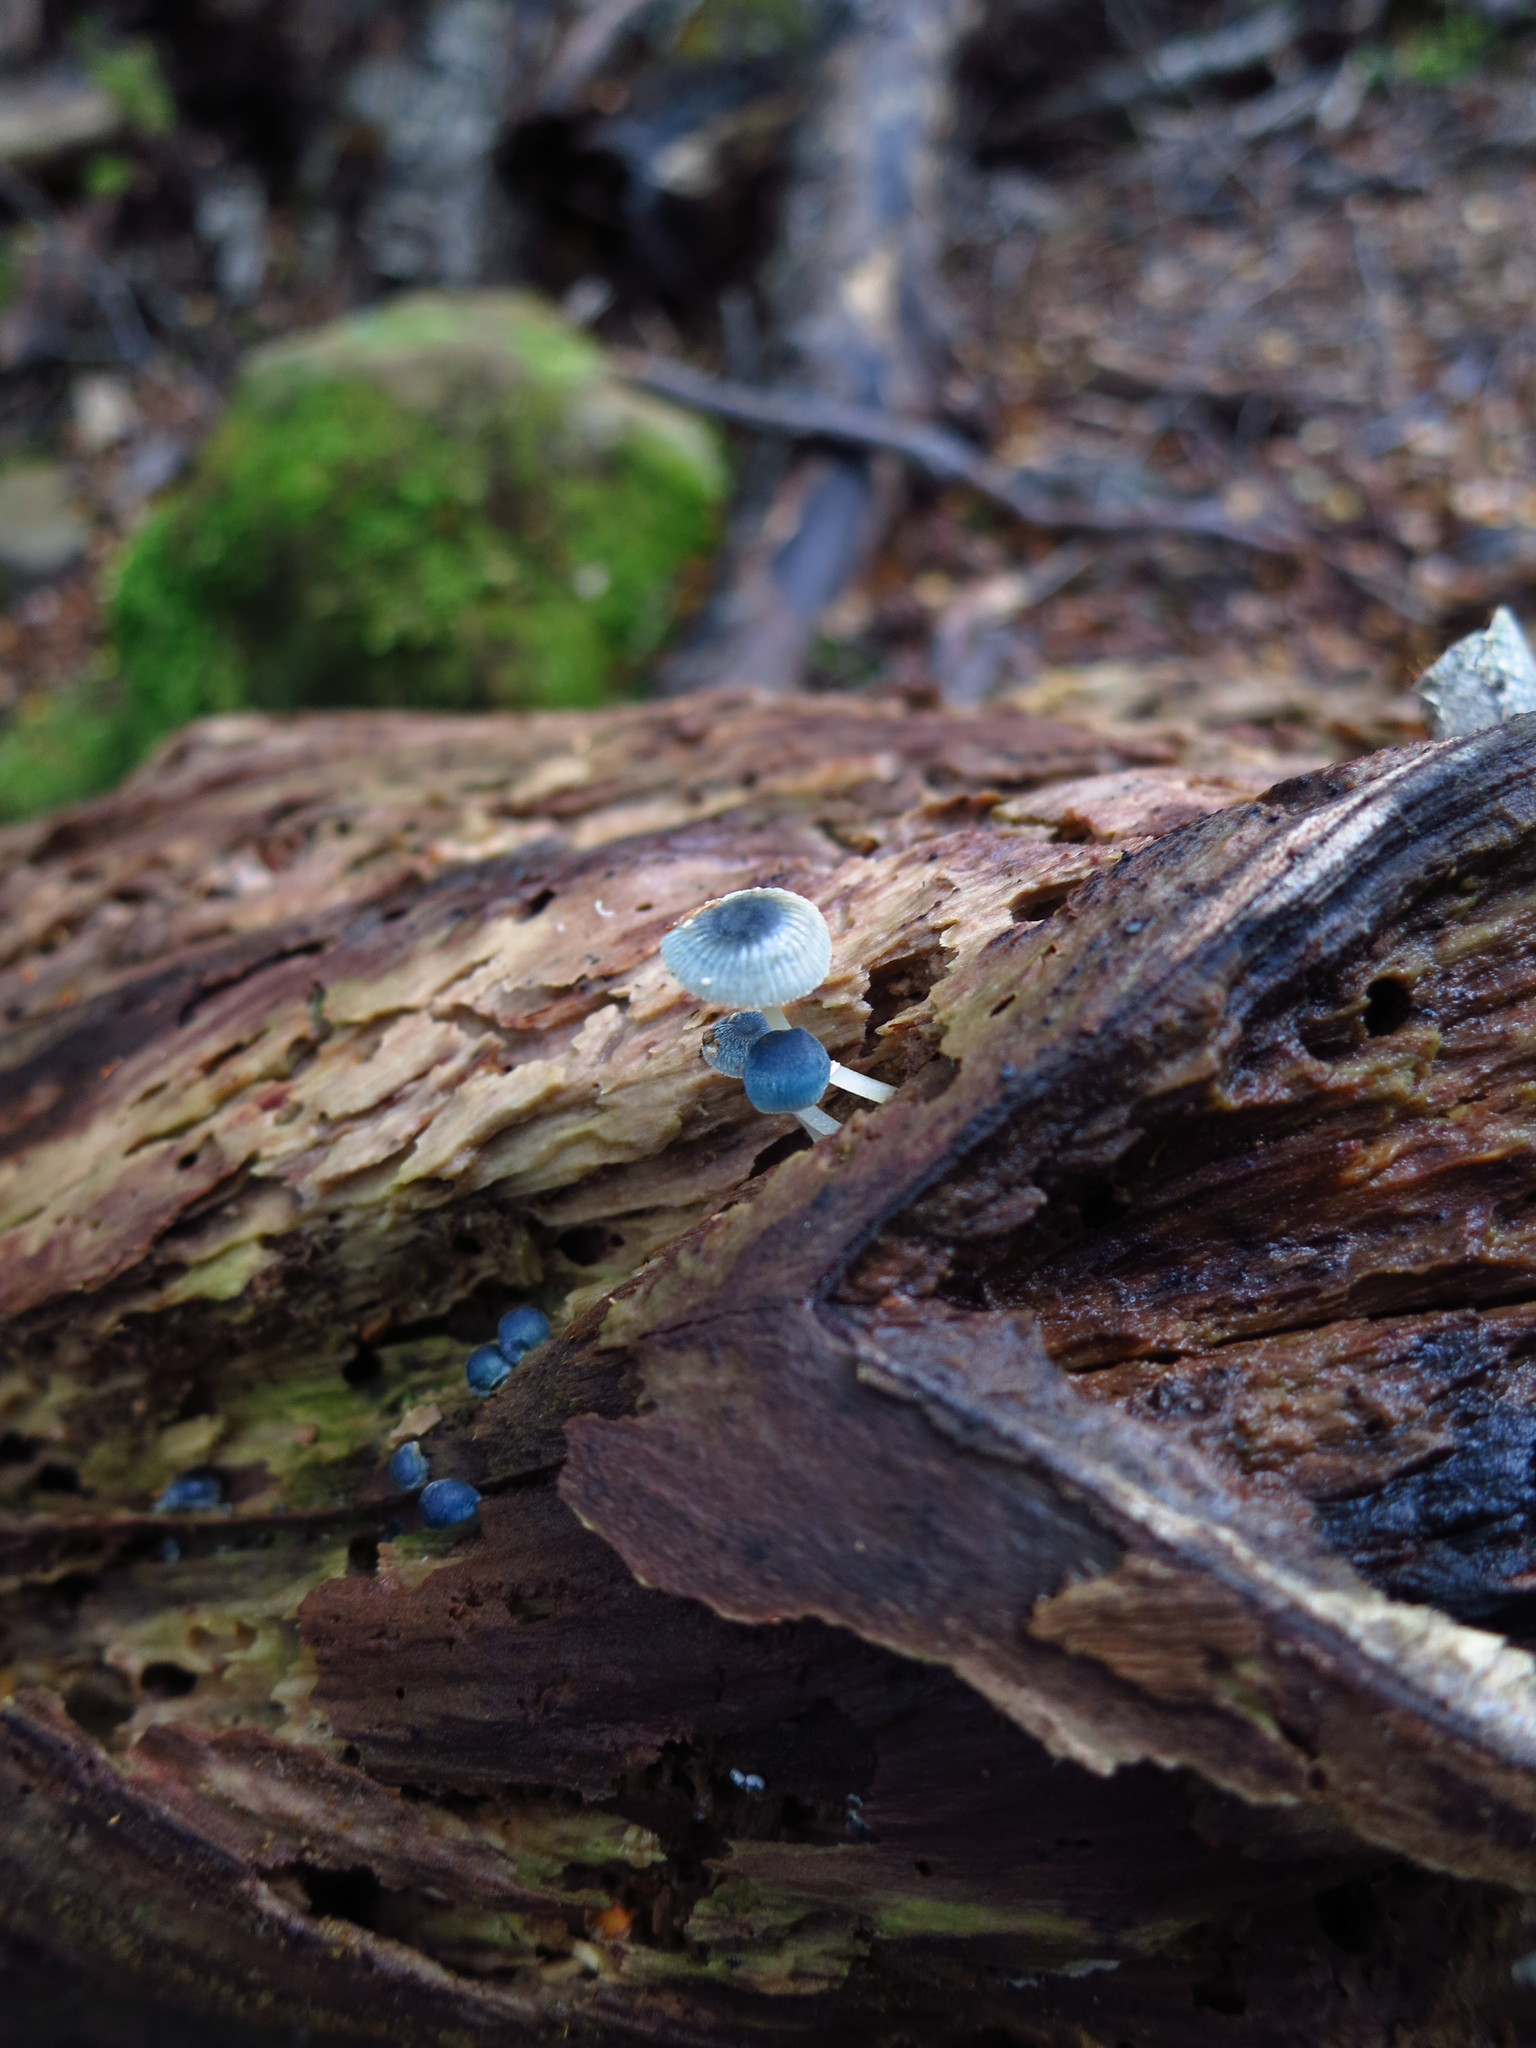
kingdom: Fungi
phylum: Basidiomycota
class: Agaricomycetes
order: Agaricales
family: Mycenaceae
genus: Mycena
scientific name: Mycena interrupta
